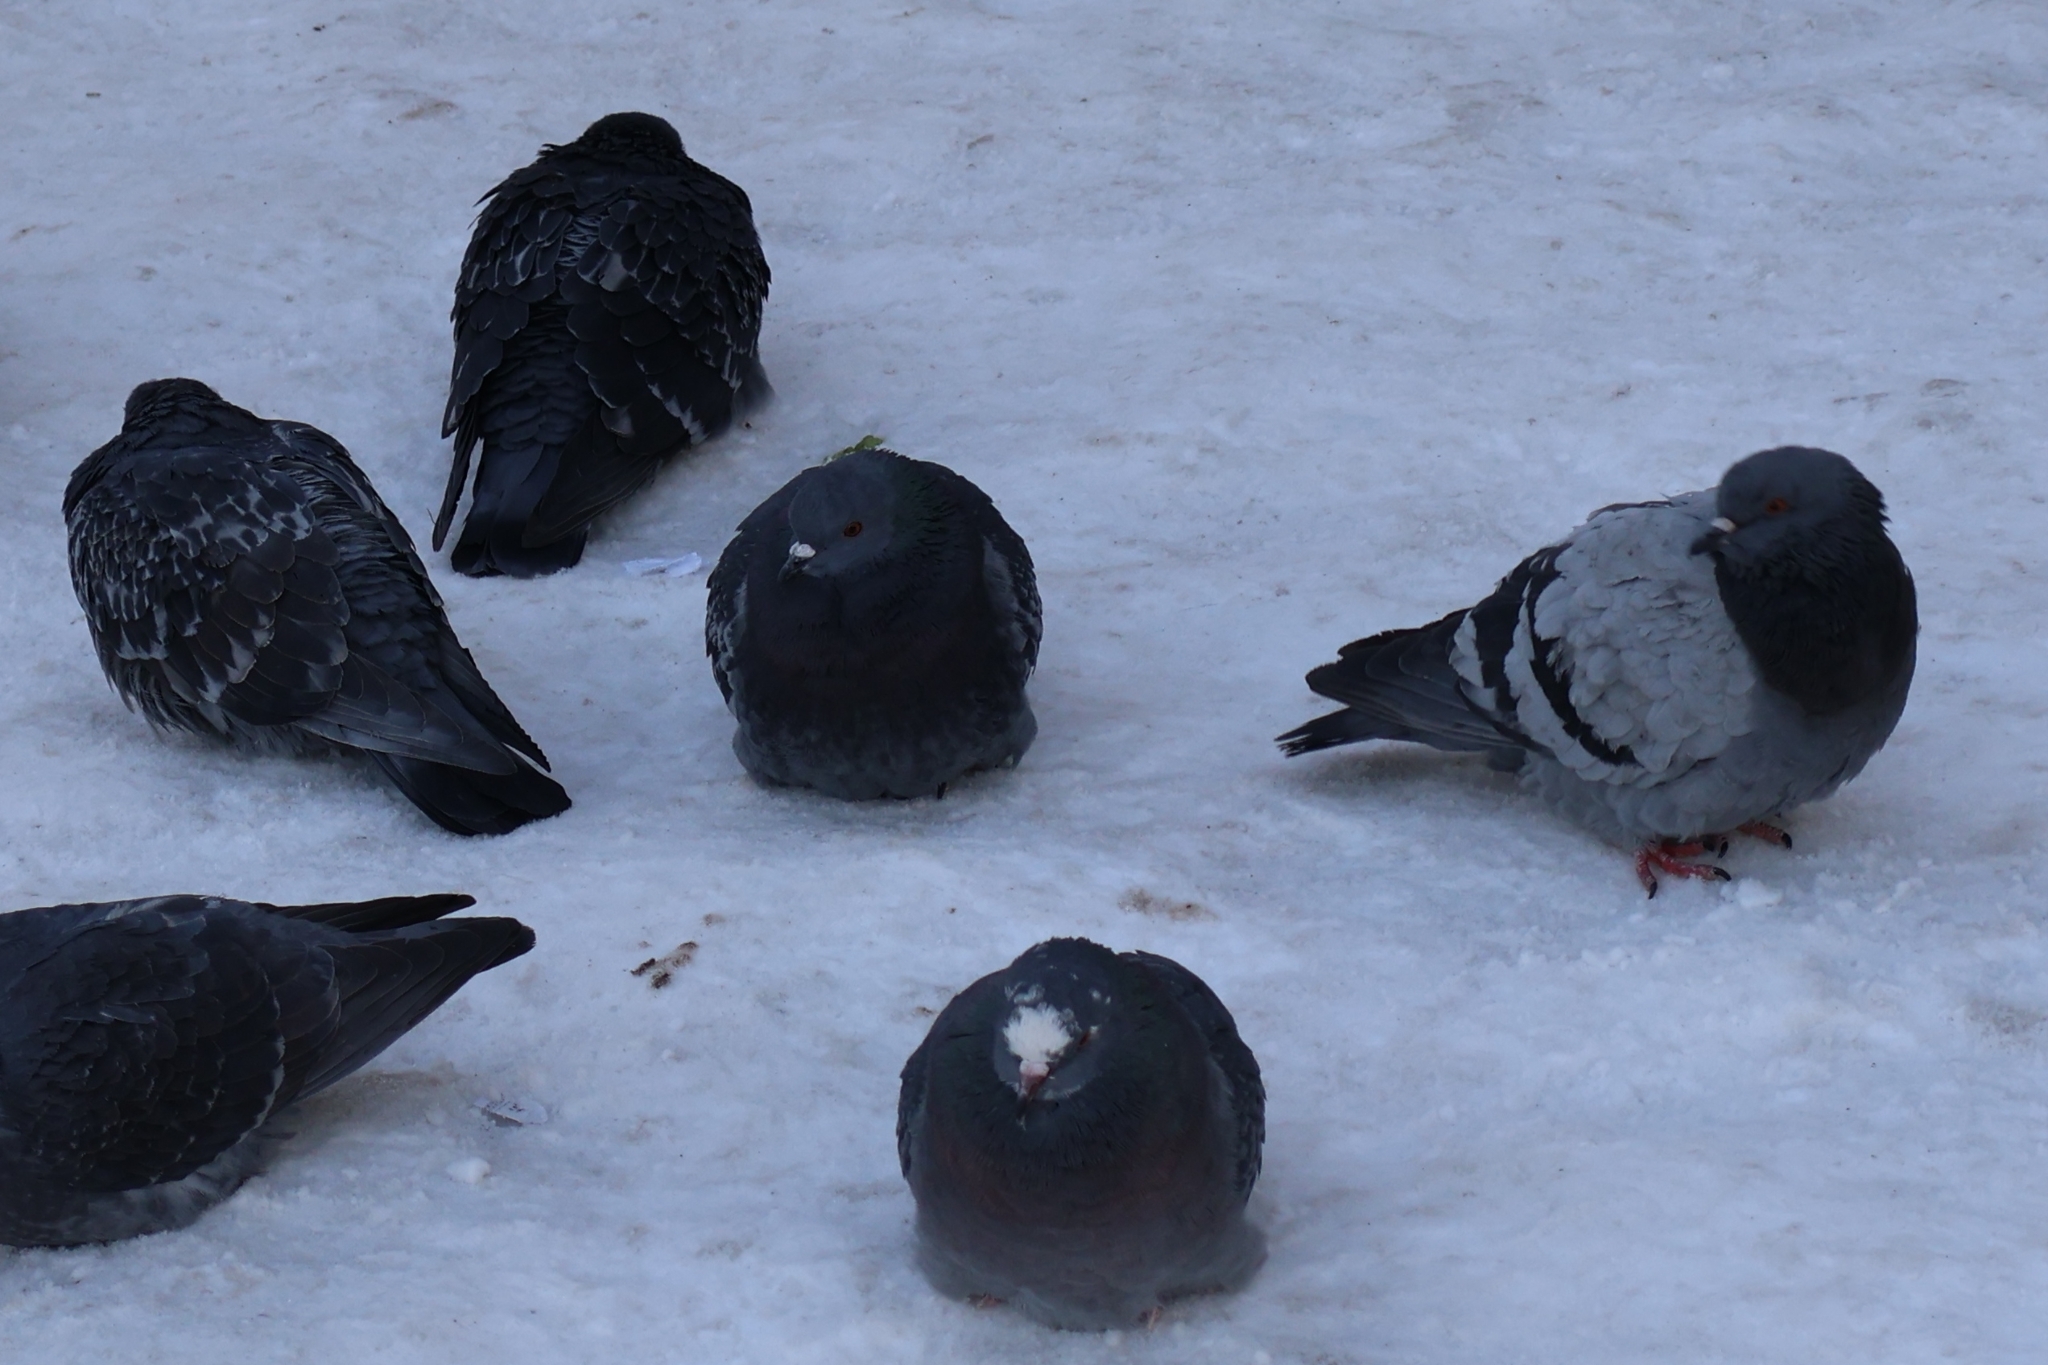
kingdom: Animalia
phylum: Chordata
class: Aves
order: Columbiformes
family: Columbidae
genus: Columba
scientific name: Columba livia
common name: Rock pigeon
